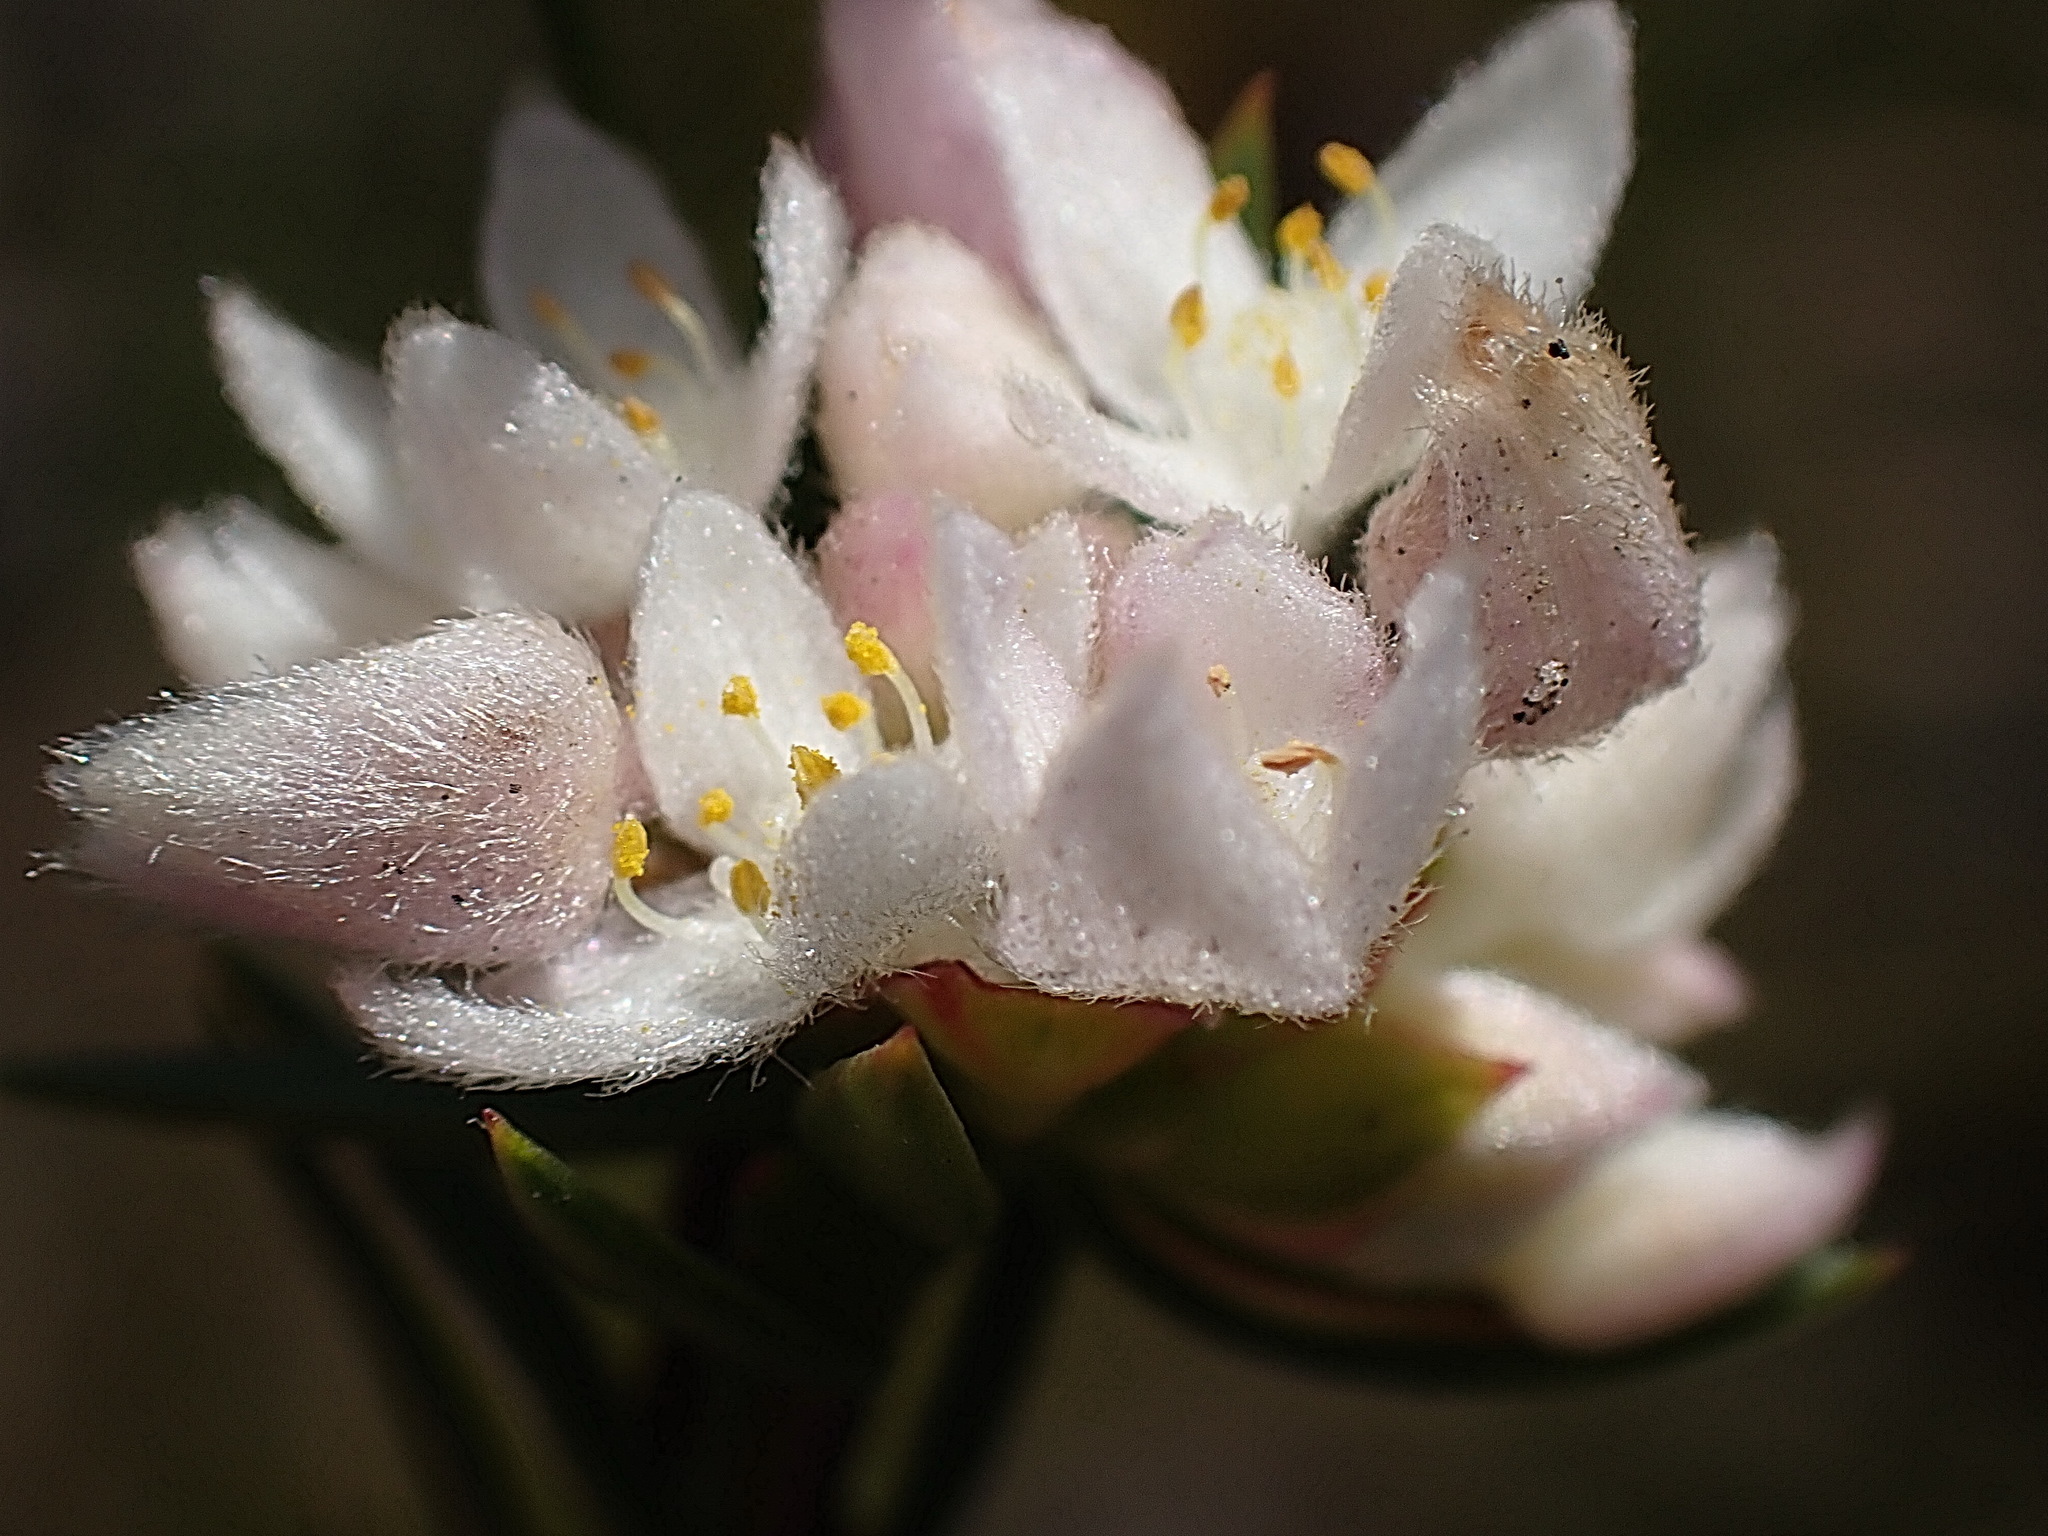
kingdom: Plantae
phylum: Tracheophyta
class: Magnoliopsida
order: Malvales
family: Thymelaeaceae
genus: Lachnaea
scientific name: Lachnaea burchellii
